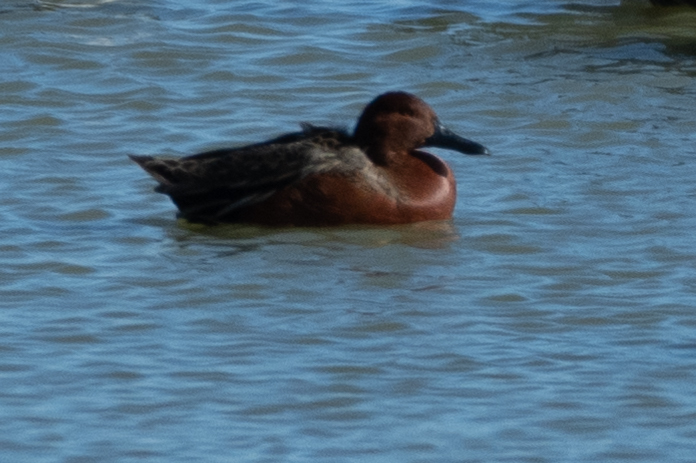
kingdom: Animalia
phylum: Chordata
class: Aves
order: Anseriformes
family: Anatidae
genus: Spatula
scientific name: Spatula cyanoptera
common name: Cinnamon teal
